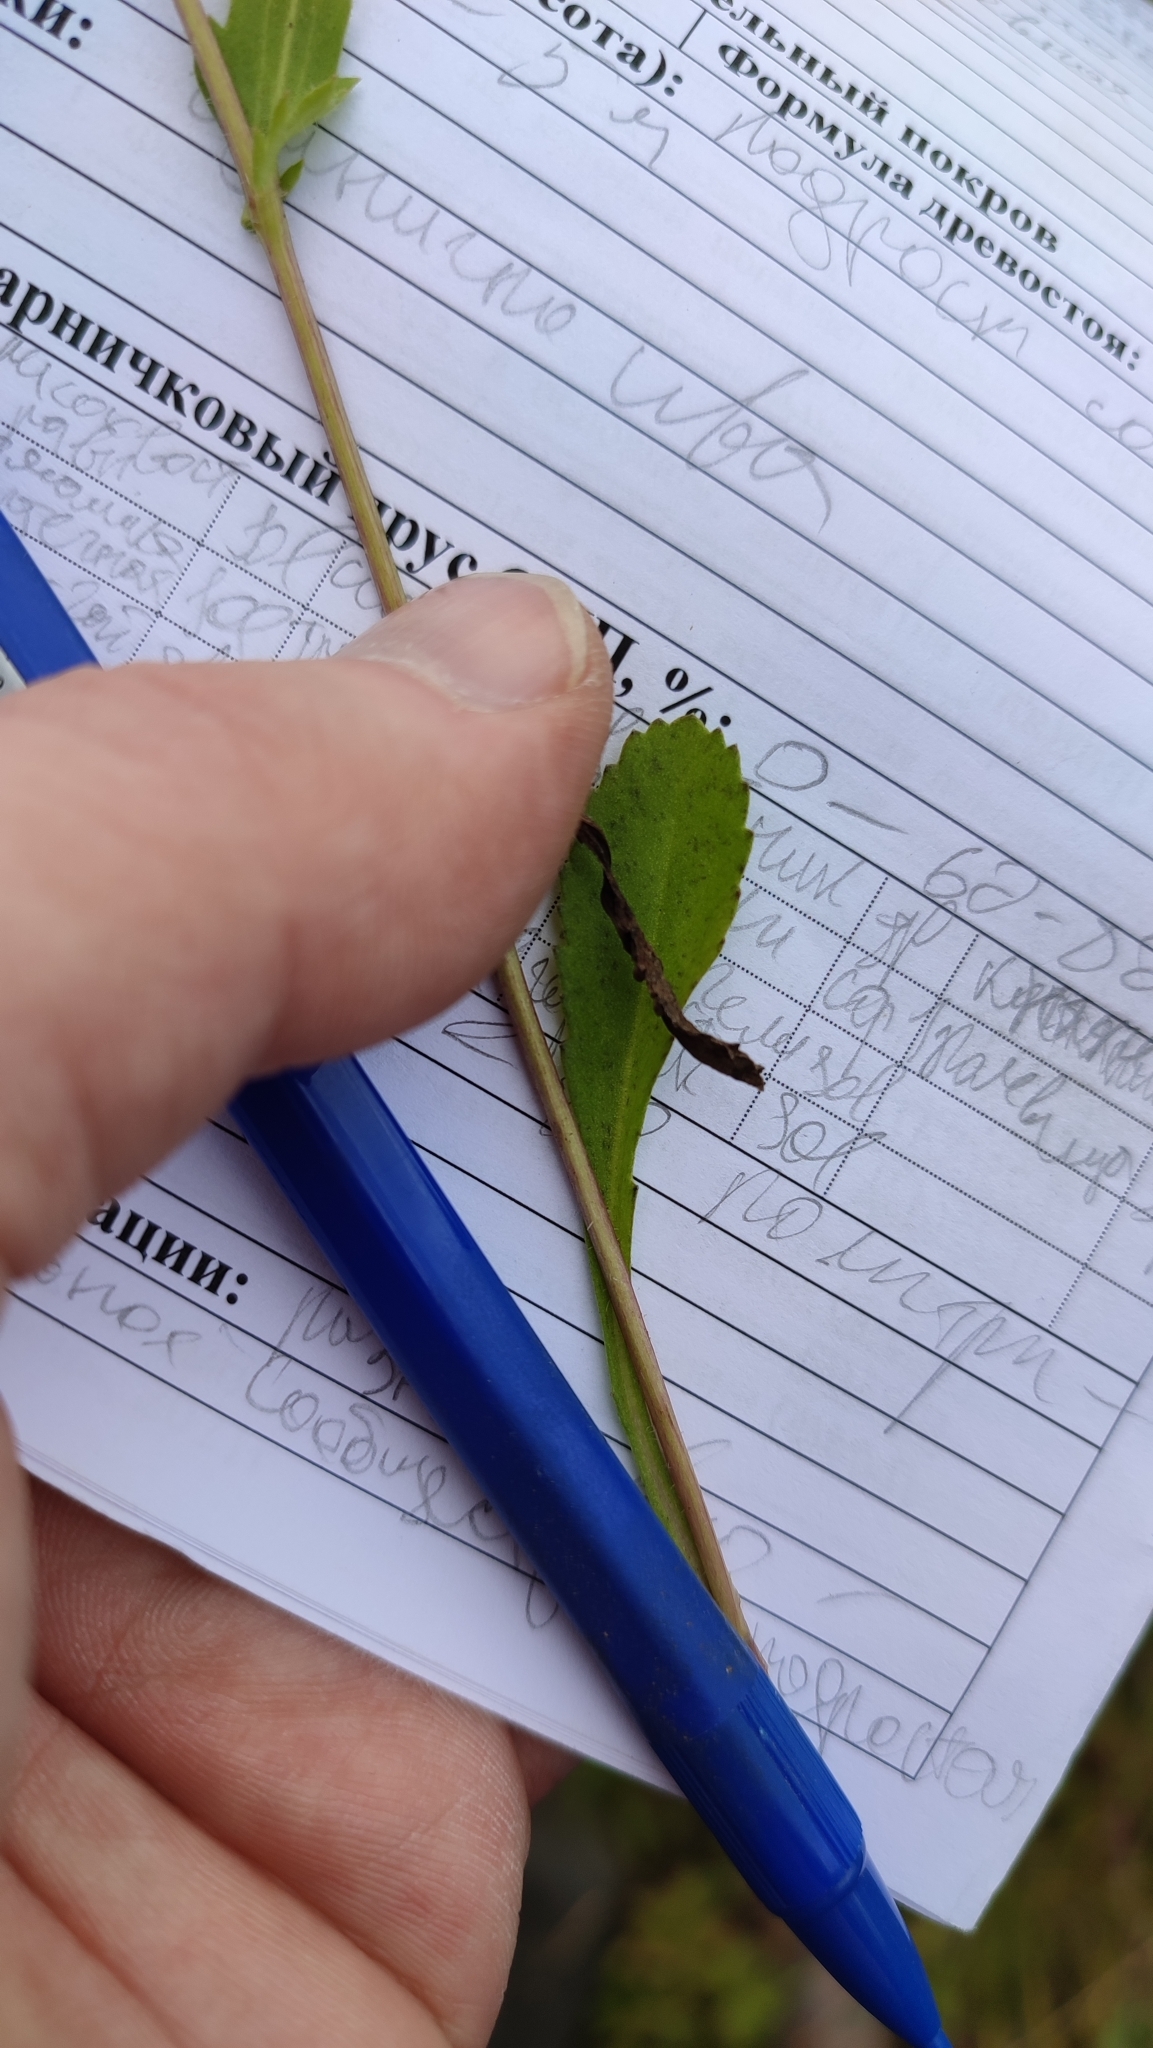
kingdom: Plantae
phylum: Tracheophyta
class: Magnoliopsida
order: Asterales
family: Asteraceae
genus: Leucanthemum
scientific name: Leucanthemum ircutianum
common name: Daisy
